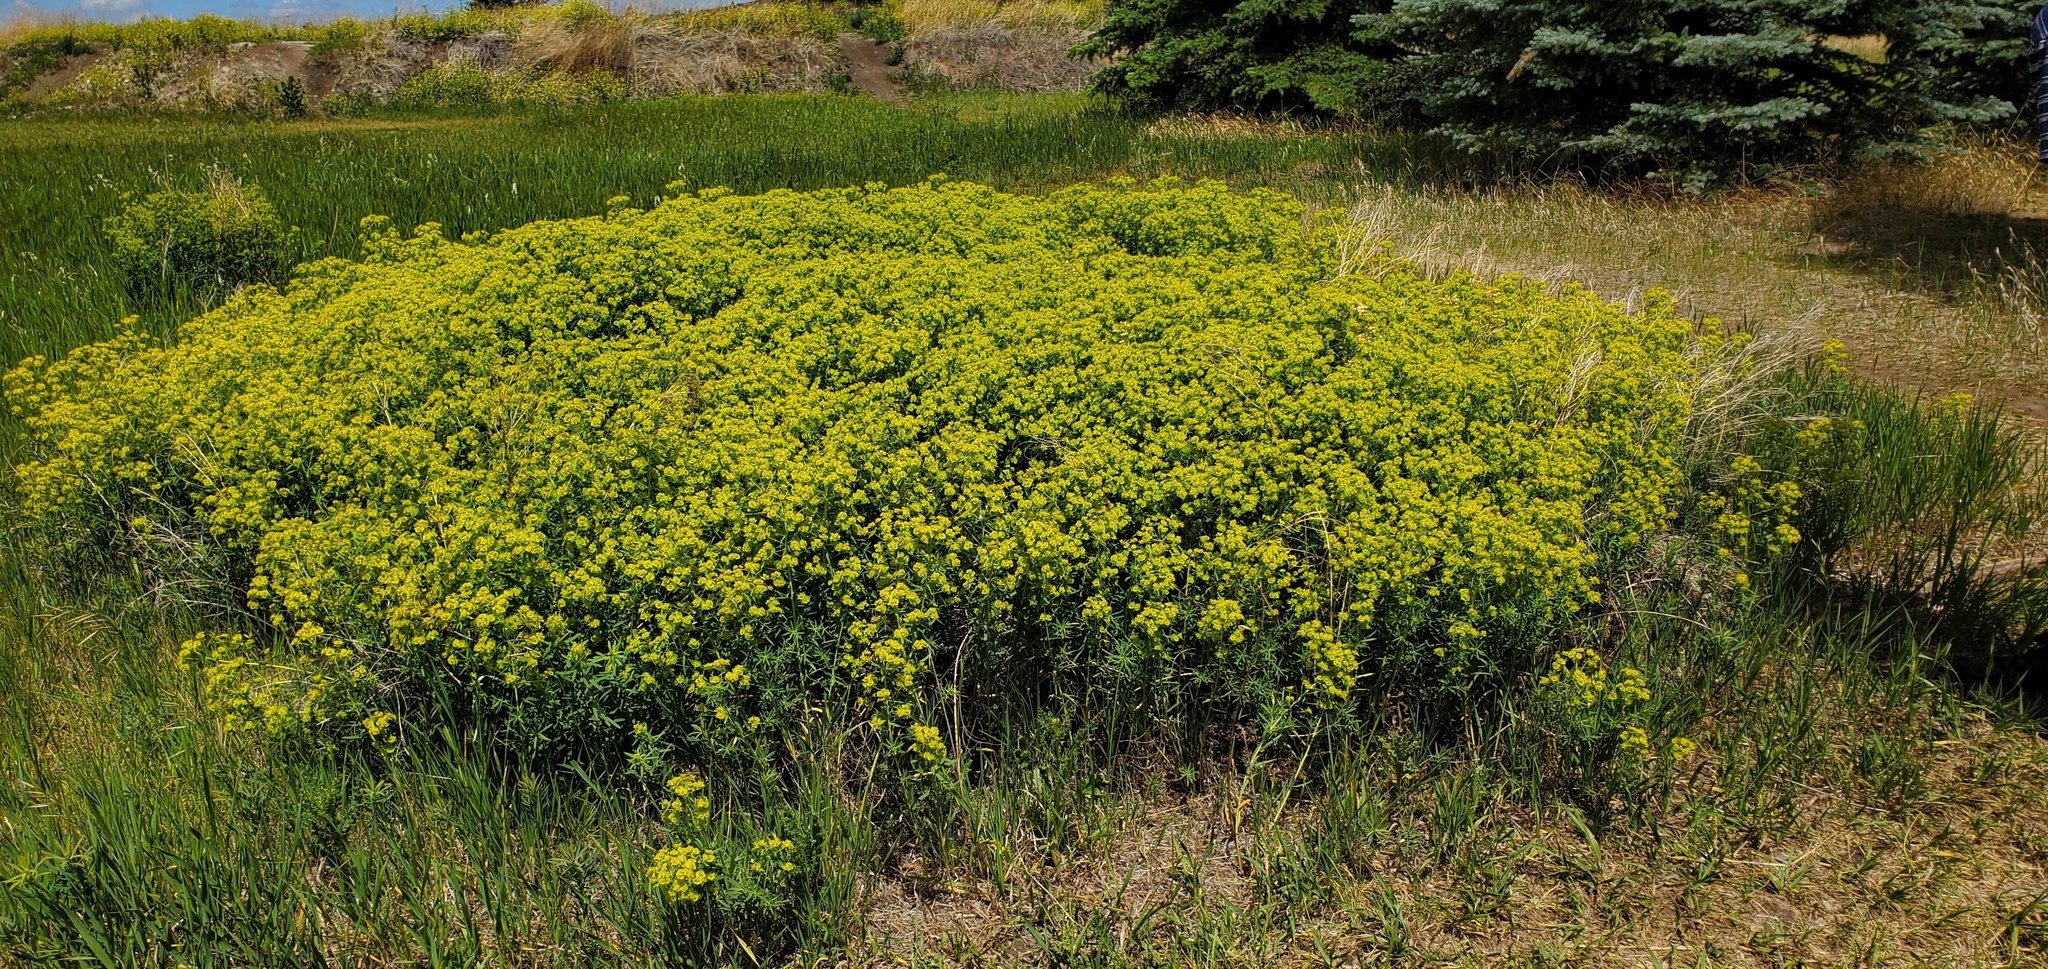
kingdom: Plantae
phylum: Tracheophyta
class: Magnoliopsida
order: Malpighiales
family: Euphorbiaceae
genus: Euphorbia
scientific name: Euphorbia virgata
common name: Leafy spurge
